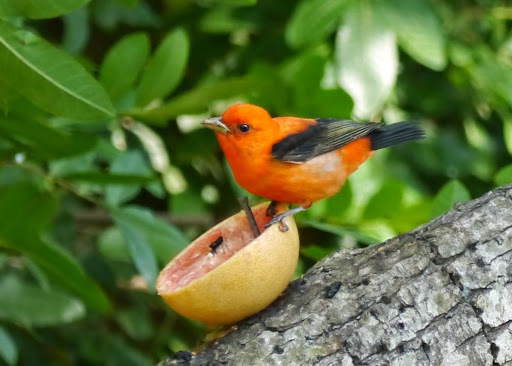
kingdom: Animalia
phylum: Chordata
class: Aves
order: Passeriformes
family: Cardinalidae
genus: Piranga
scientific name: Piranga olivacea
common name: Scarlet tanager
